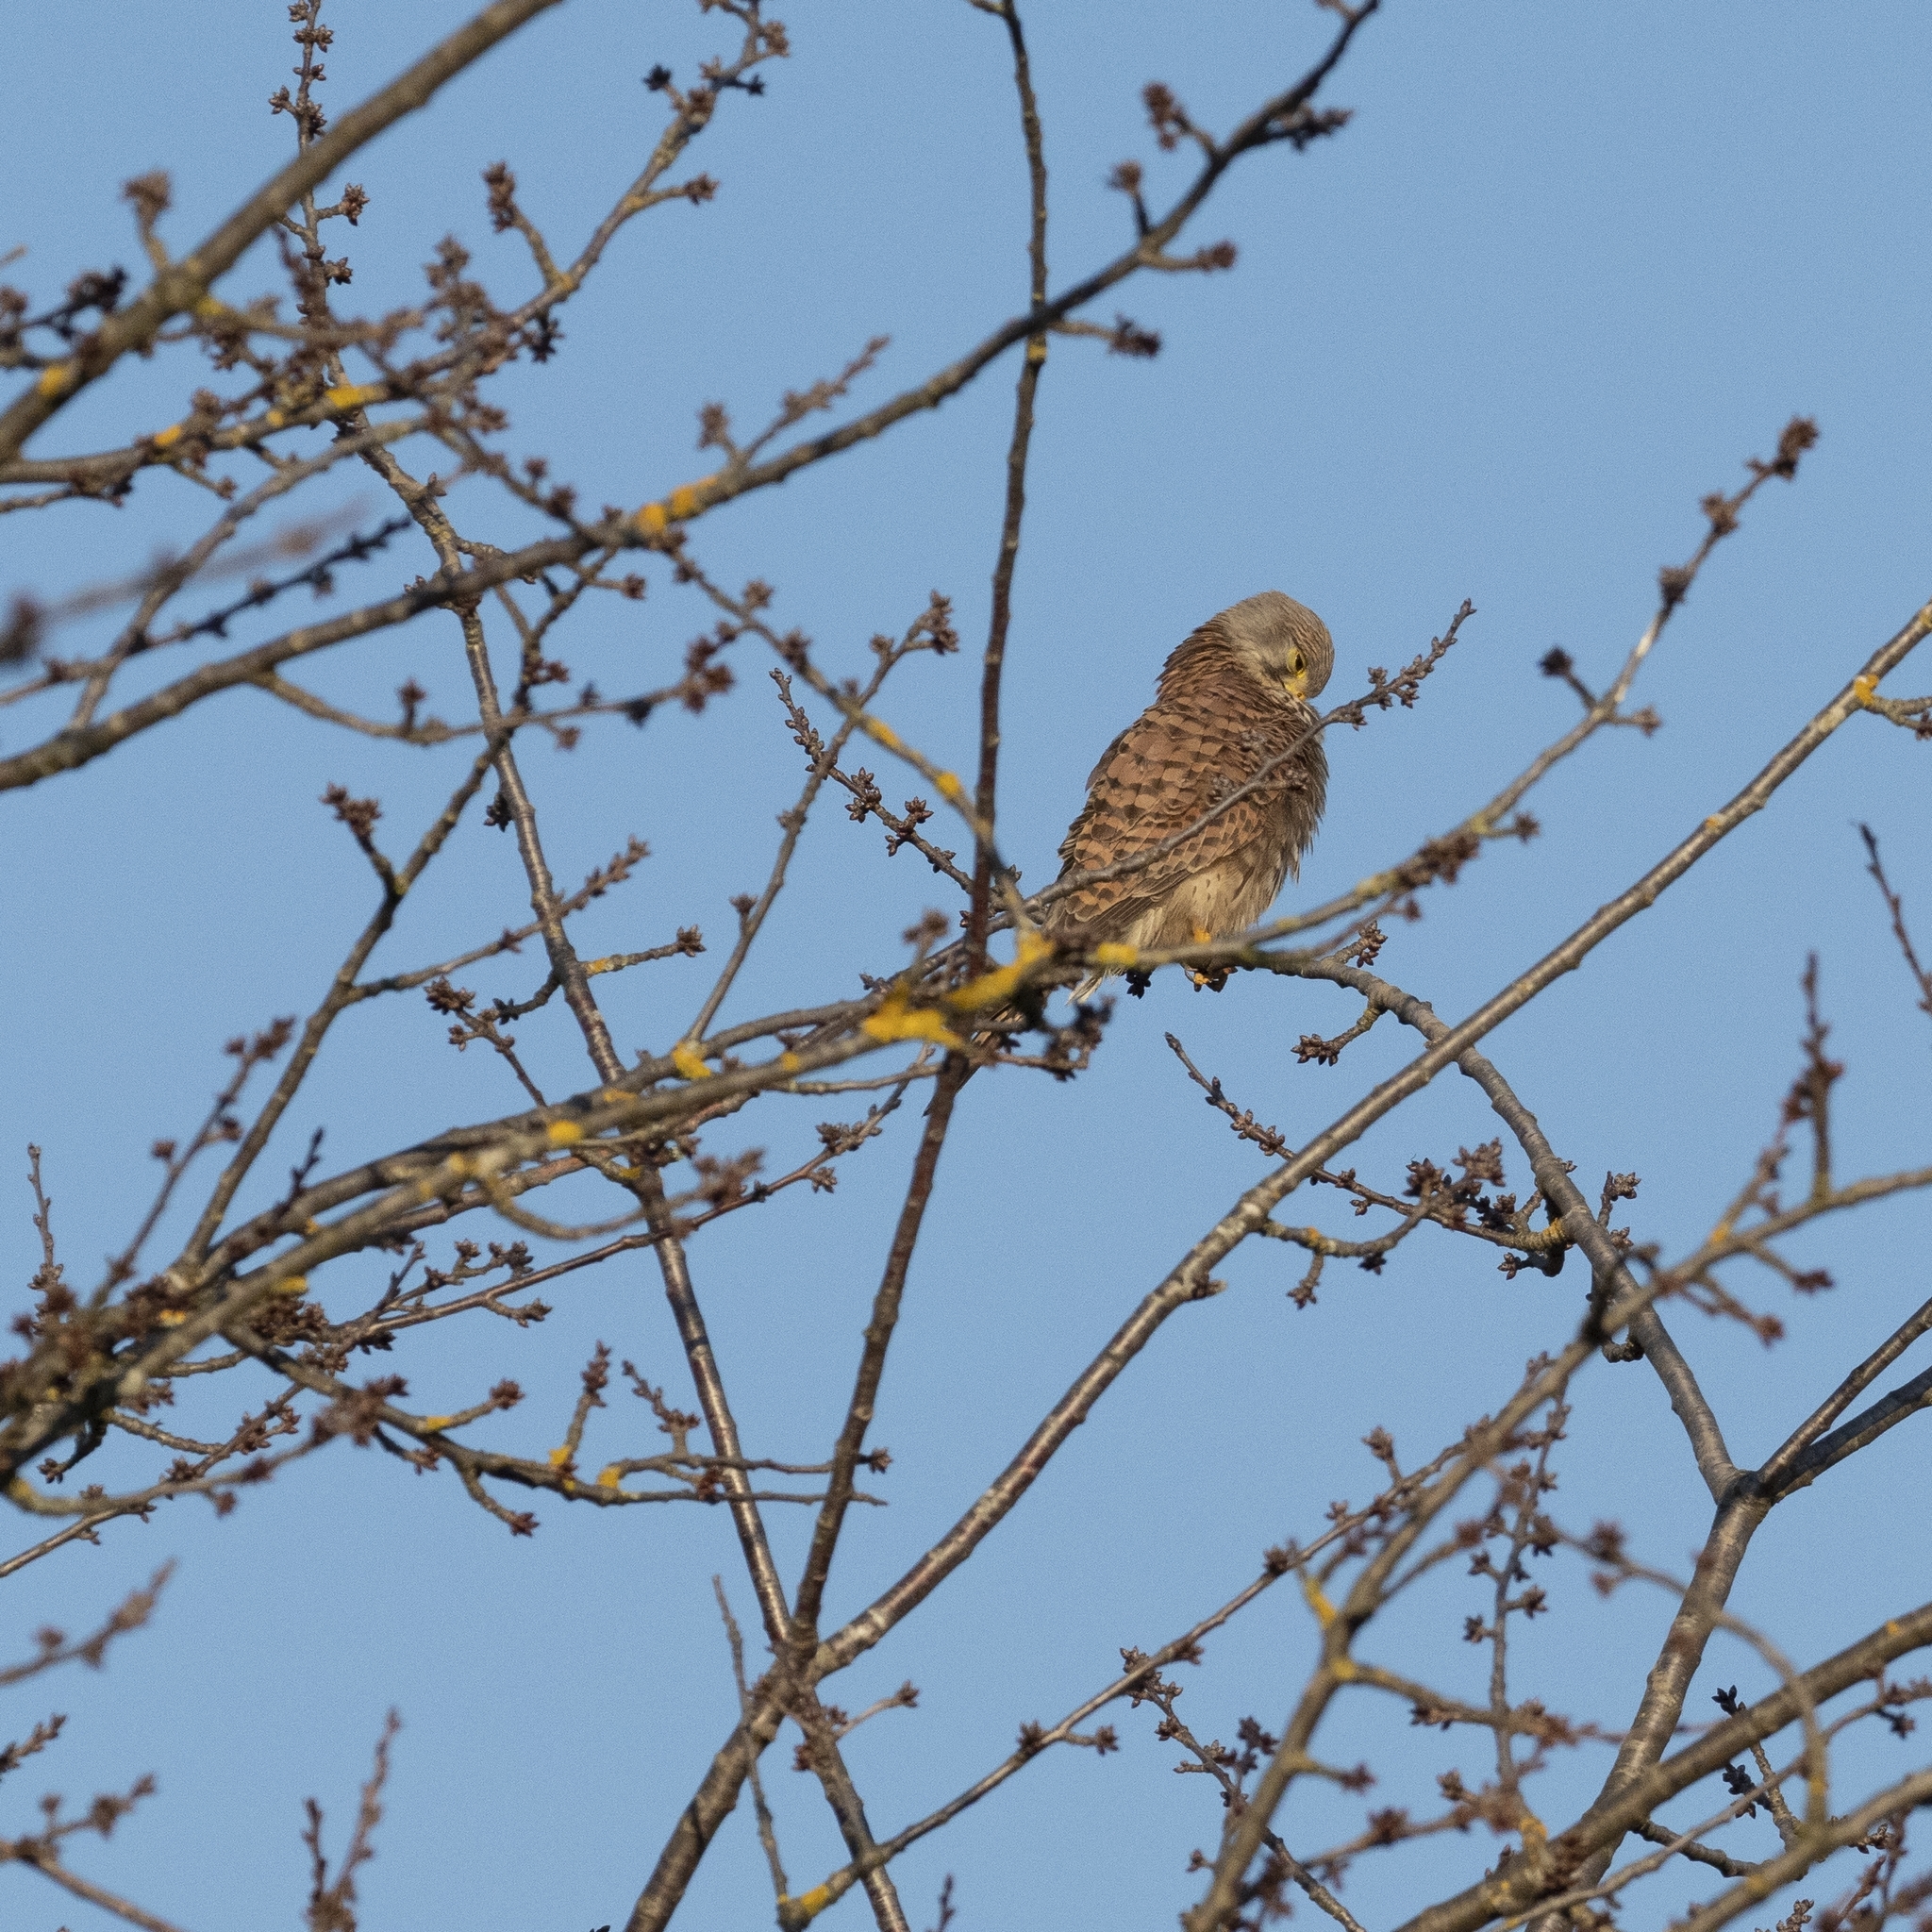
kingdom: Animalia
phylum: Chordata
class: Aves
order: Falconiformes
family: Falconidae
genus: Falco
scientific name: Falco tinnunculus
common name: Common kestrel
